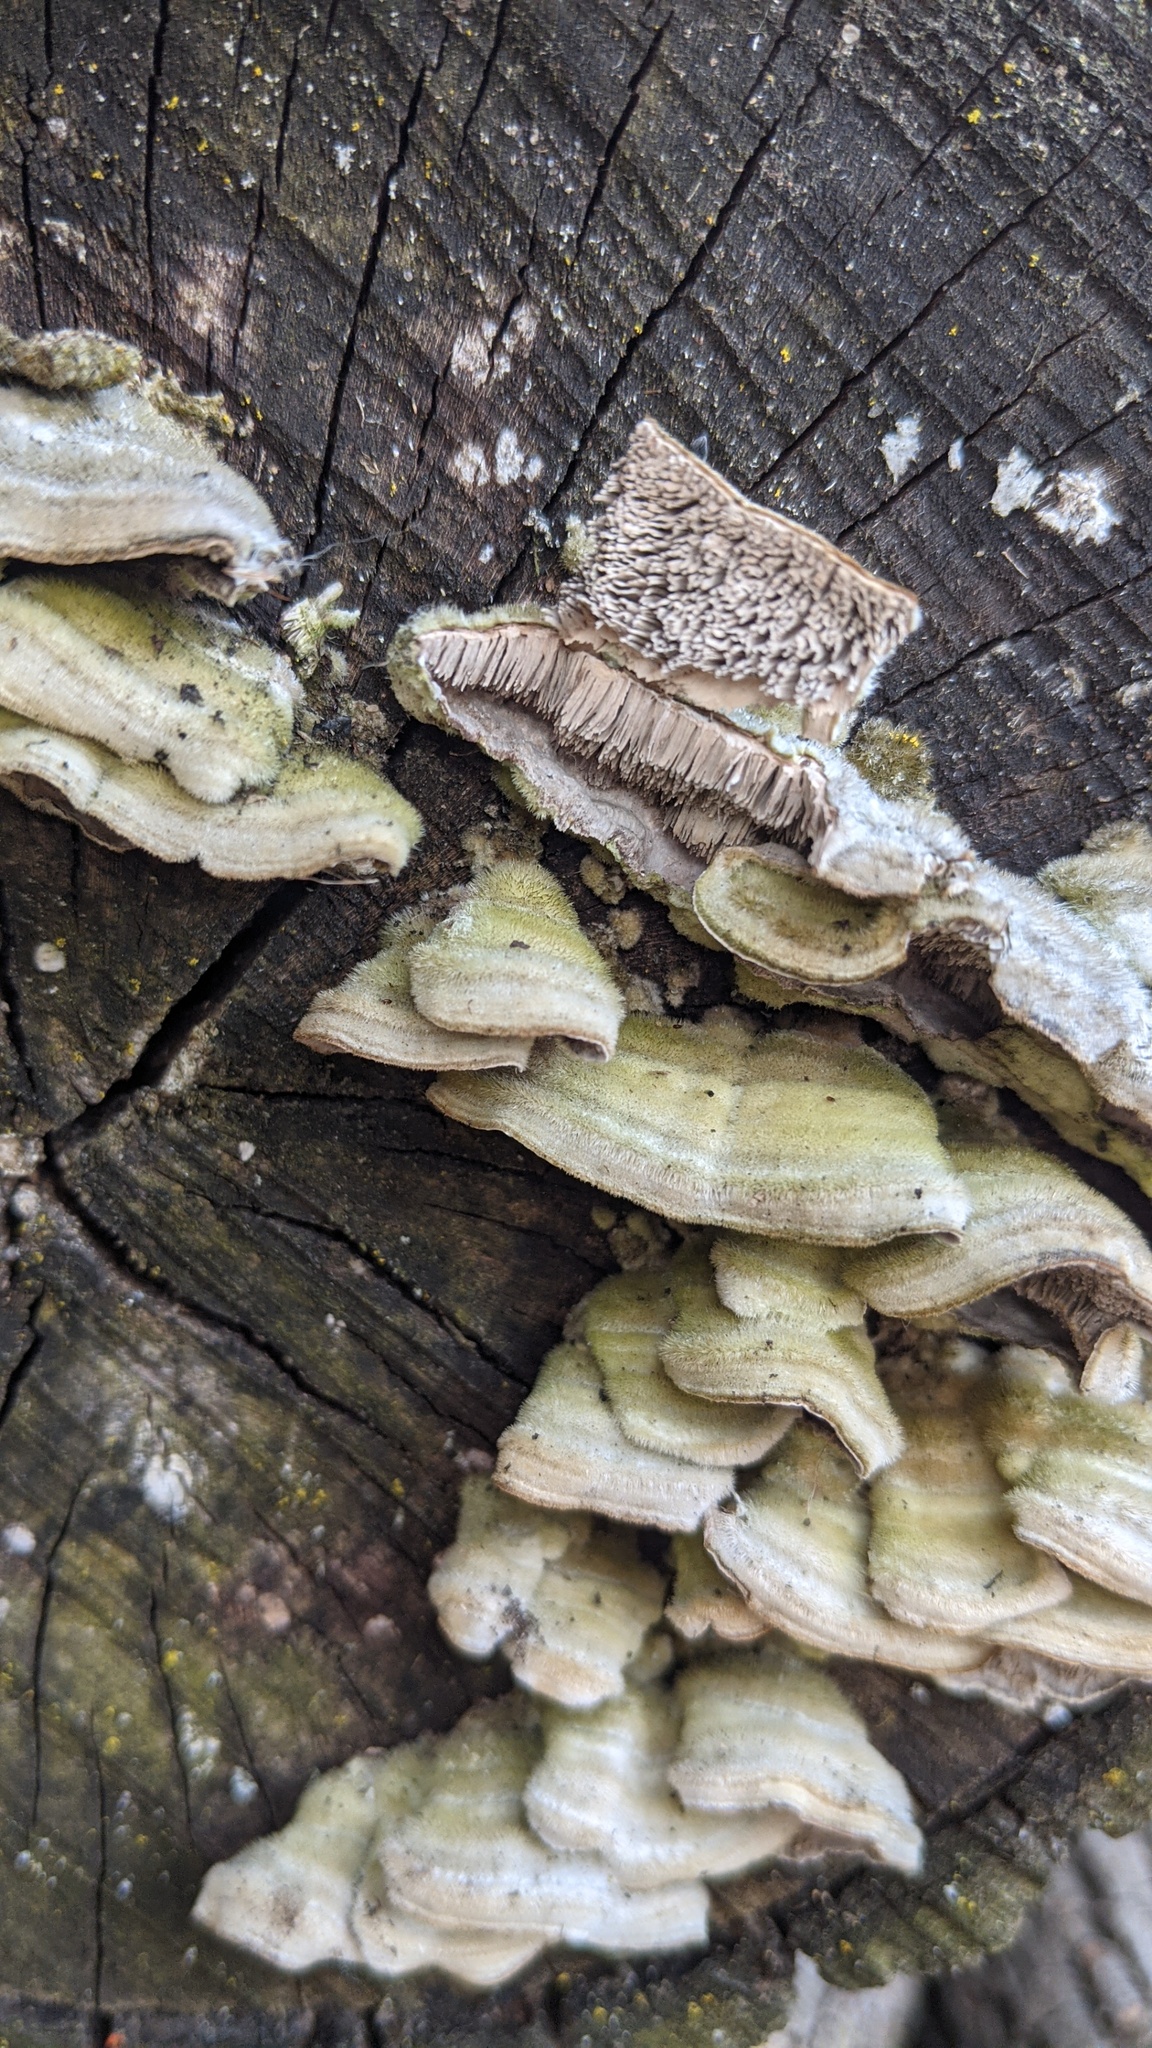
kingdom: Fungi
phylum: Basidiomycota
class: Agaricomycetes
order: Polyporales
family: Cerrenaceae
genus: Cerrena
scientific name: Cerrena unicolor
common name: Mossy maze polypore
